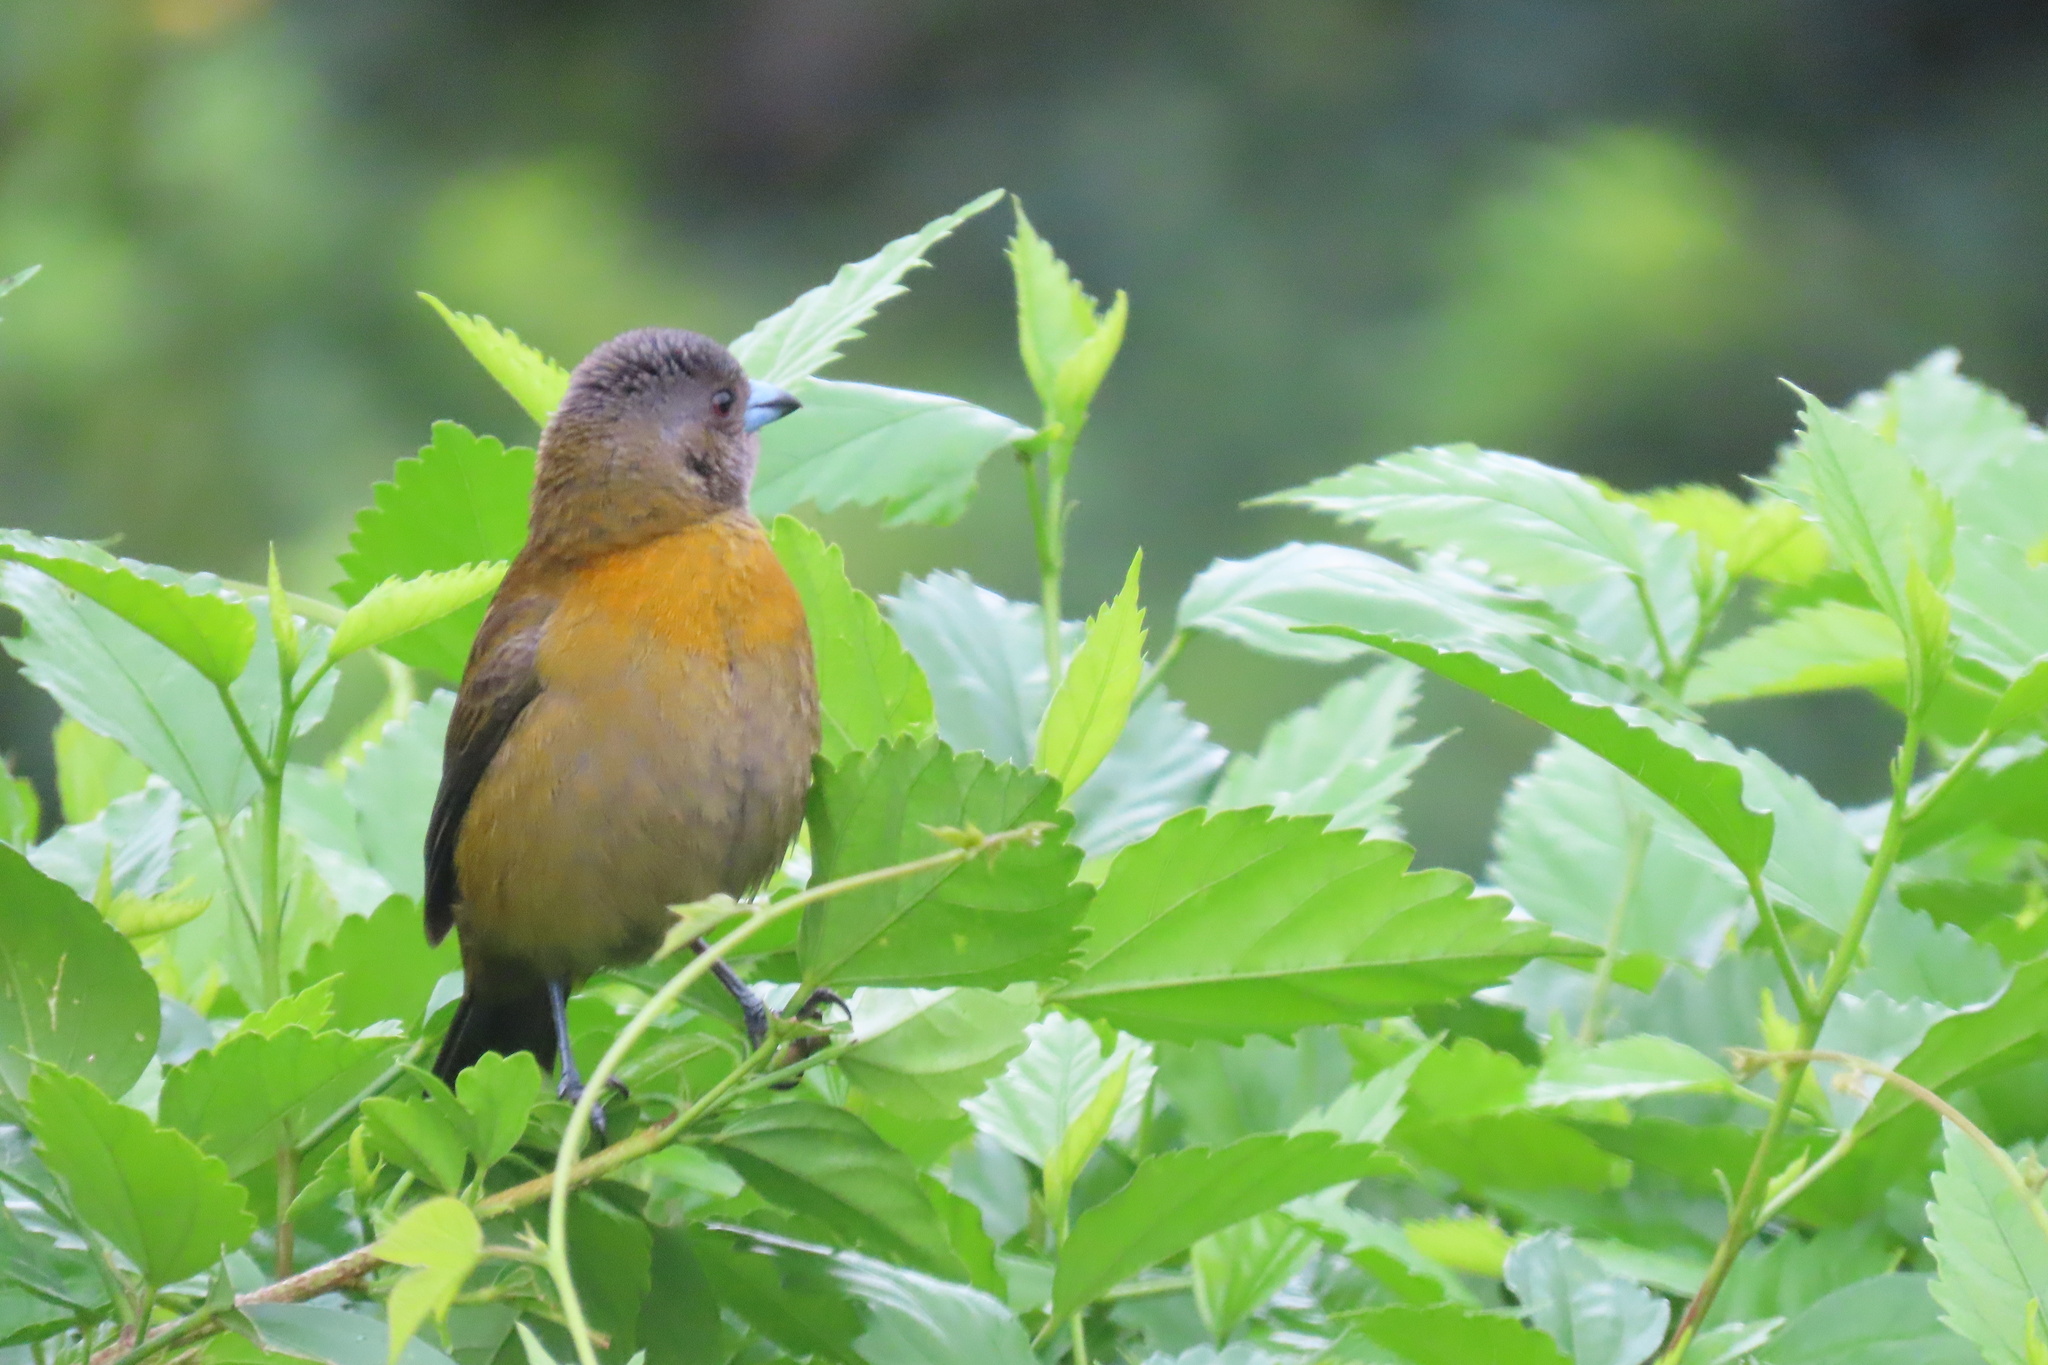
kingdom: Animalia
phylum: Chordata
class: Aves
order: Passeriformes
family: Thraupidae
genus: Ramphocelus
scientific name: Ramphocelus passerinii
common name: Passerini's tanager
